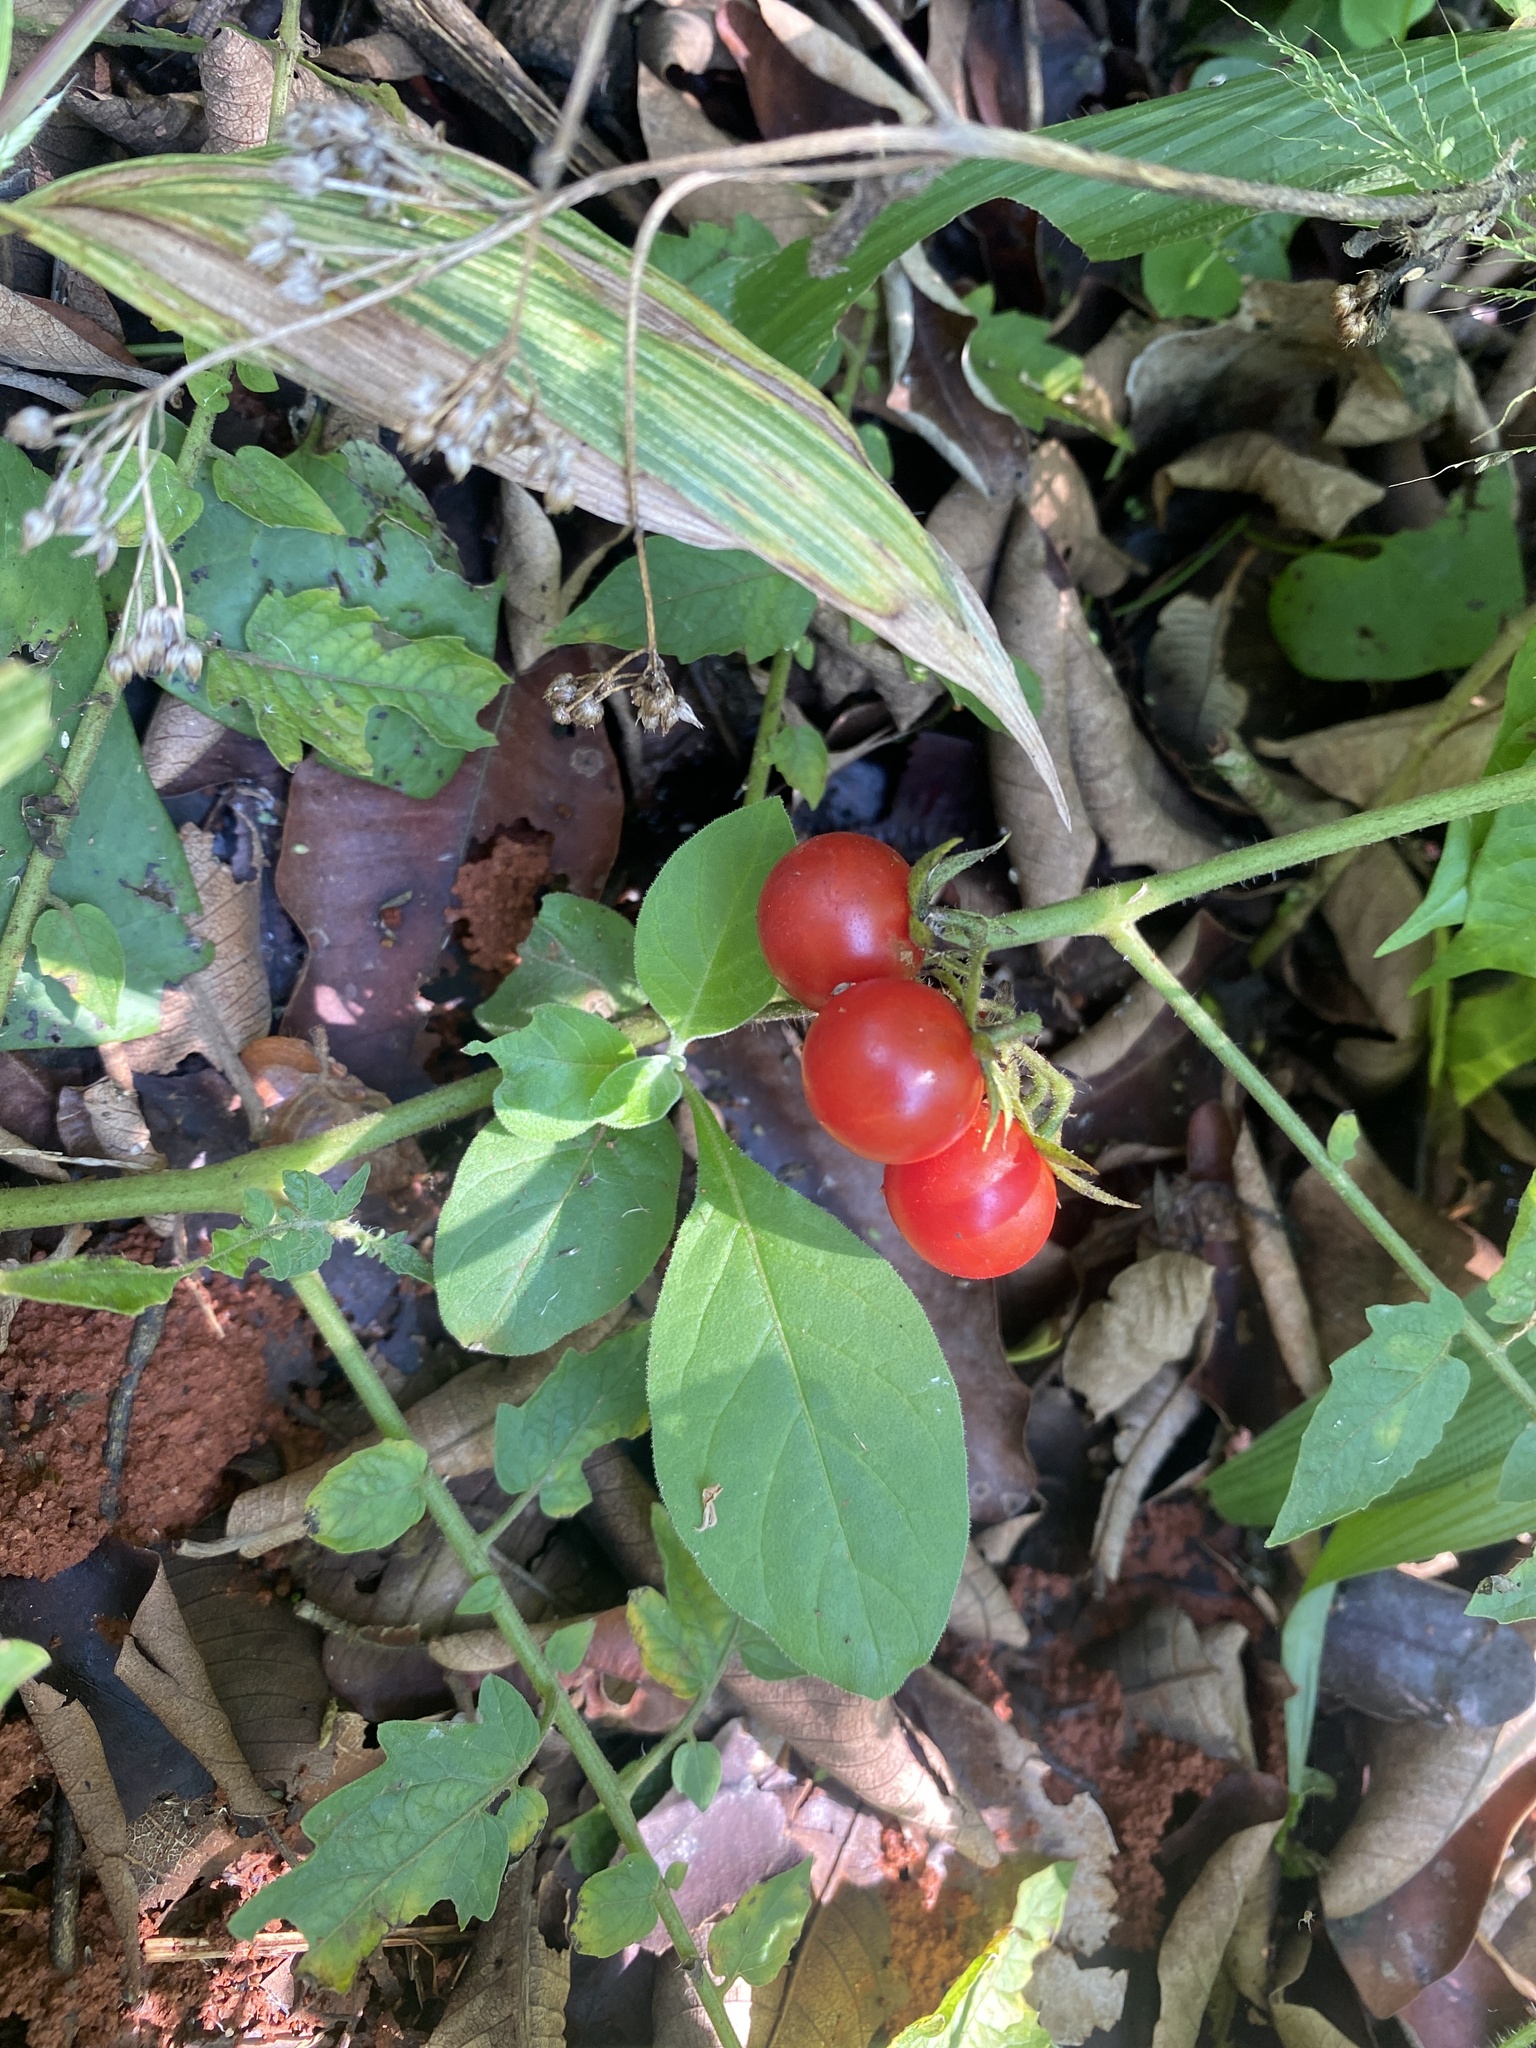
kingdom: Plantae
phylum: Tracheophyta
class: Magnoliopsida
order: Solanales
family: Solanaceae
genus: Solanum
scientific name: Solanum lycopersicum
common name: Garden tomato
